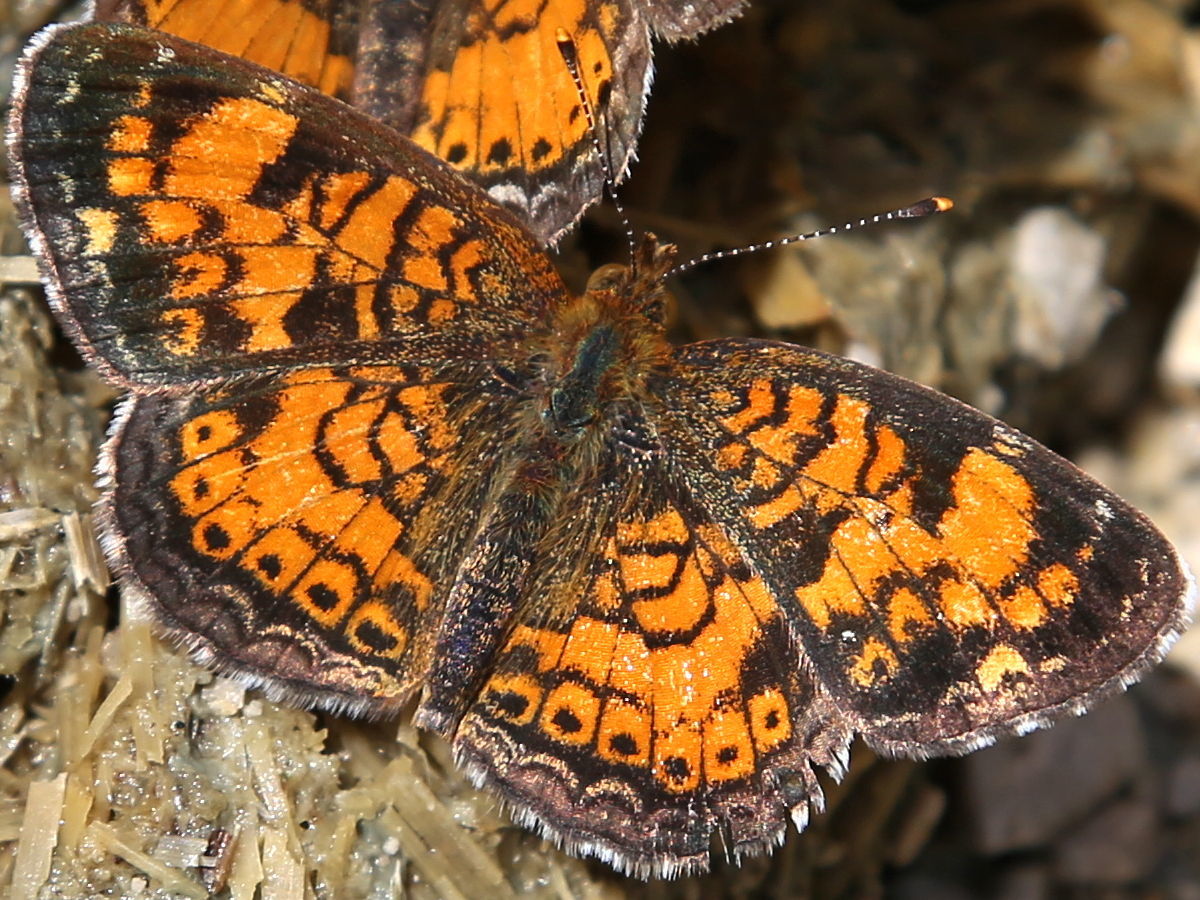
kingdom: Animalia
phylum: Arthropoda
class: Insecta
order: Lepidoptera
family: Nymphalidae
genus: Phyciodes
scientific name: Phyciodes tharos
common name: Pearl crescent
